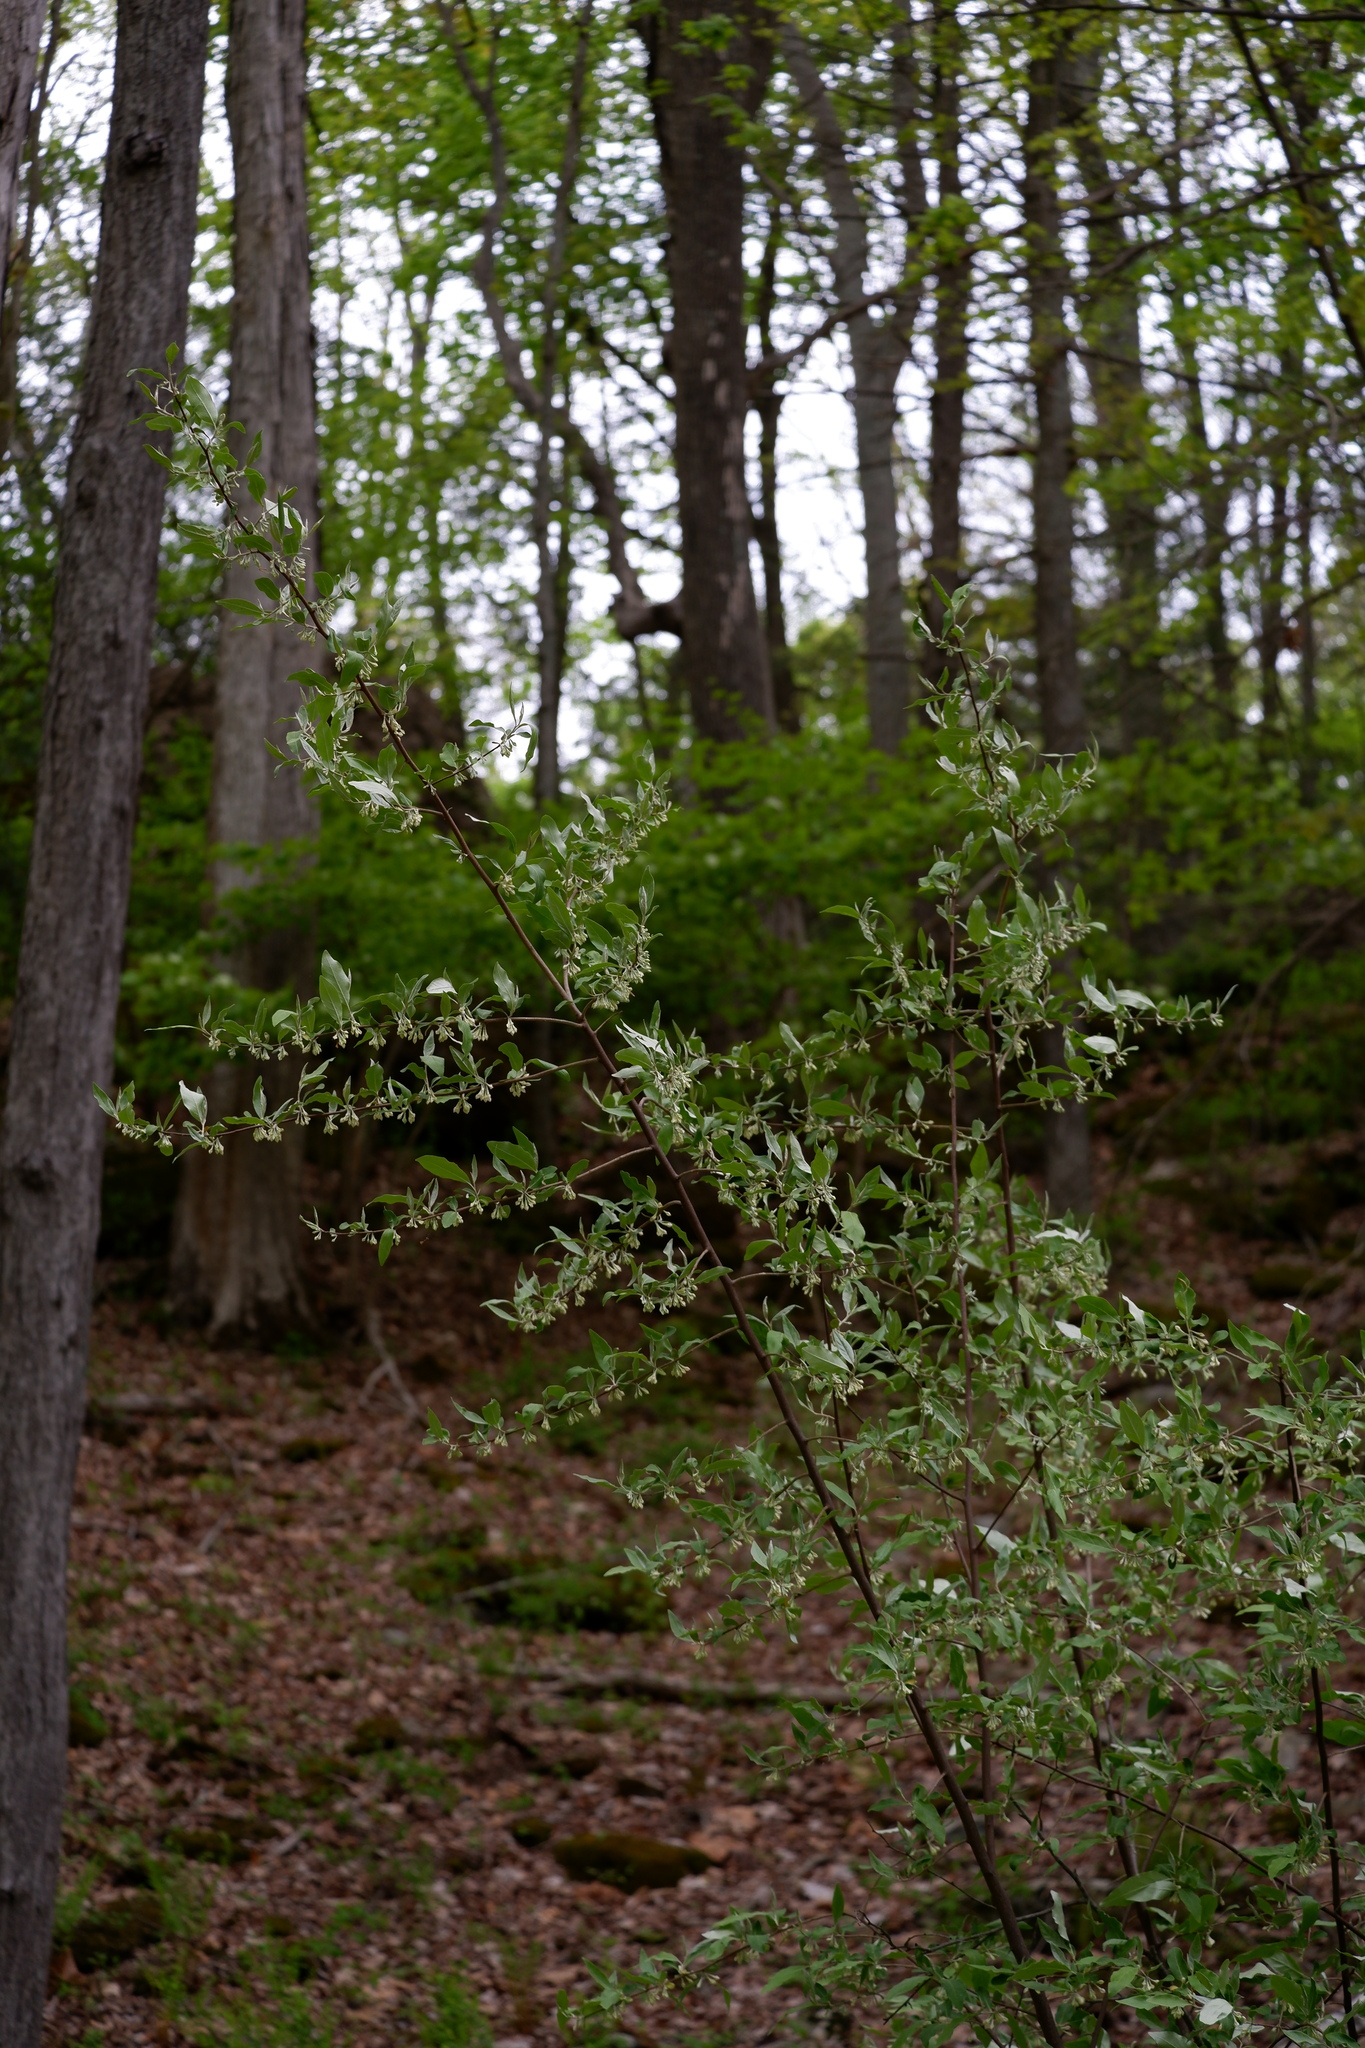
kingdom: Plantae
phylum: Tracheophyta
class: Magnoliopsida
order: Rosales
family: Elaeagnaceae
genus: Elaeagnus
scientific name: Elaeagnus umbellata
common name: Autumn olive
